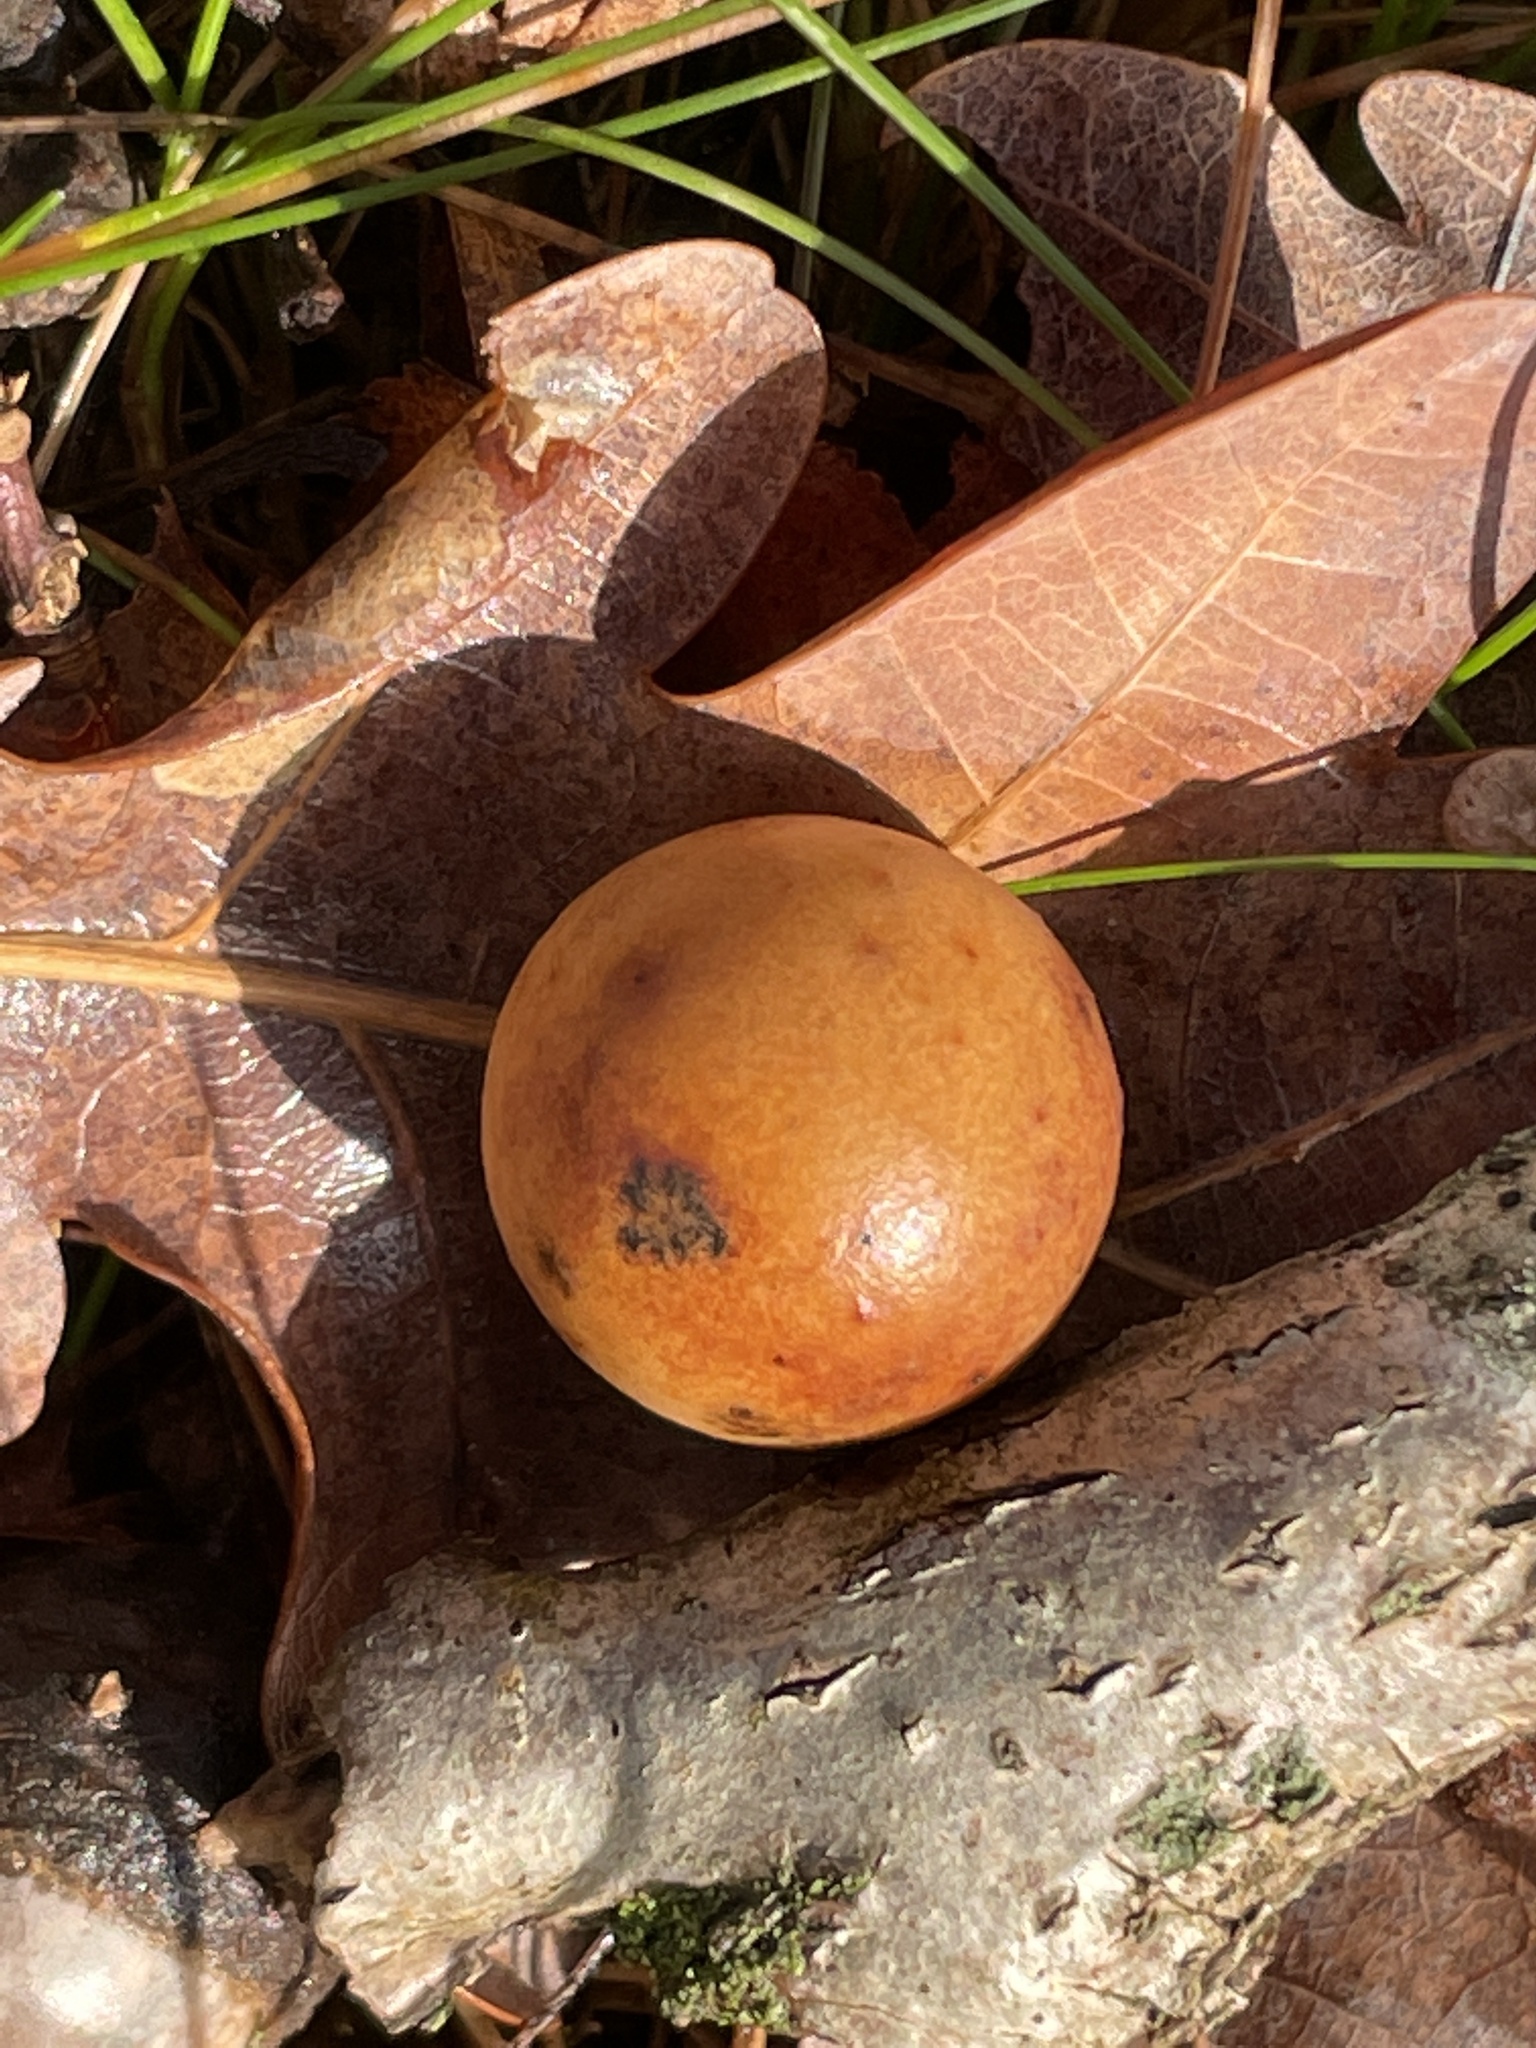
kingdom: Animalia
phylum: Arthropoda
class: Insecta
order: Hymenoptera
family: Cynipidae
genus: Cynips
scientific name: Cynips quercusfolii
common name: Cherry gall
